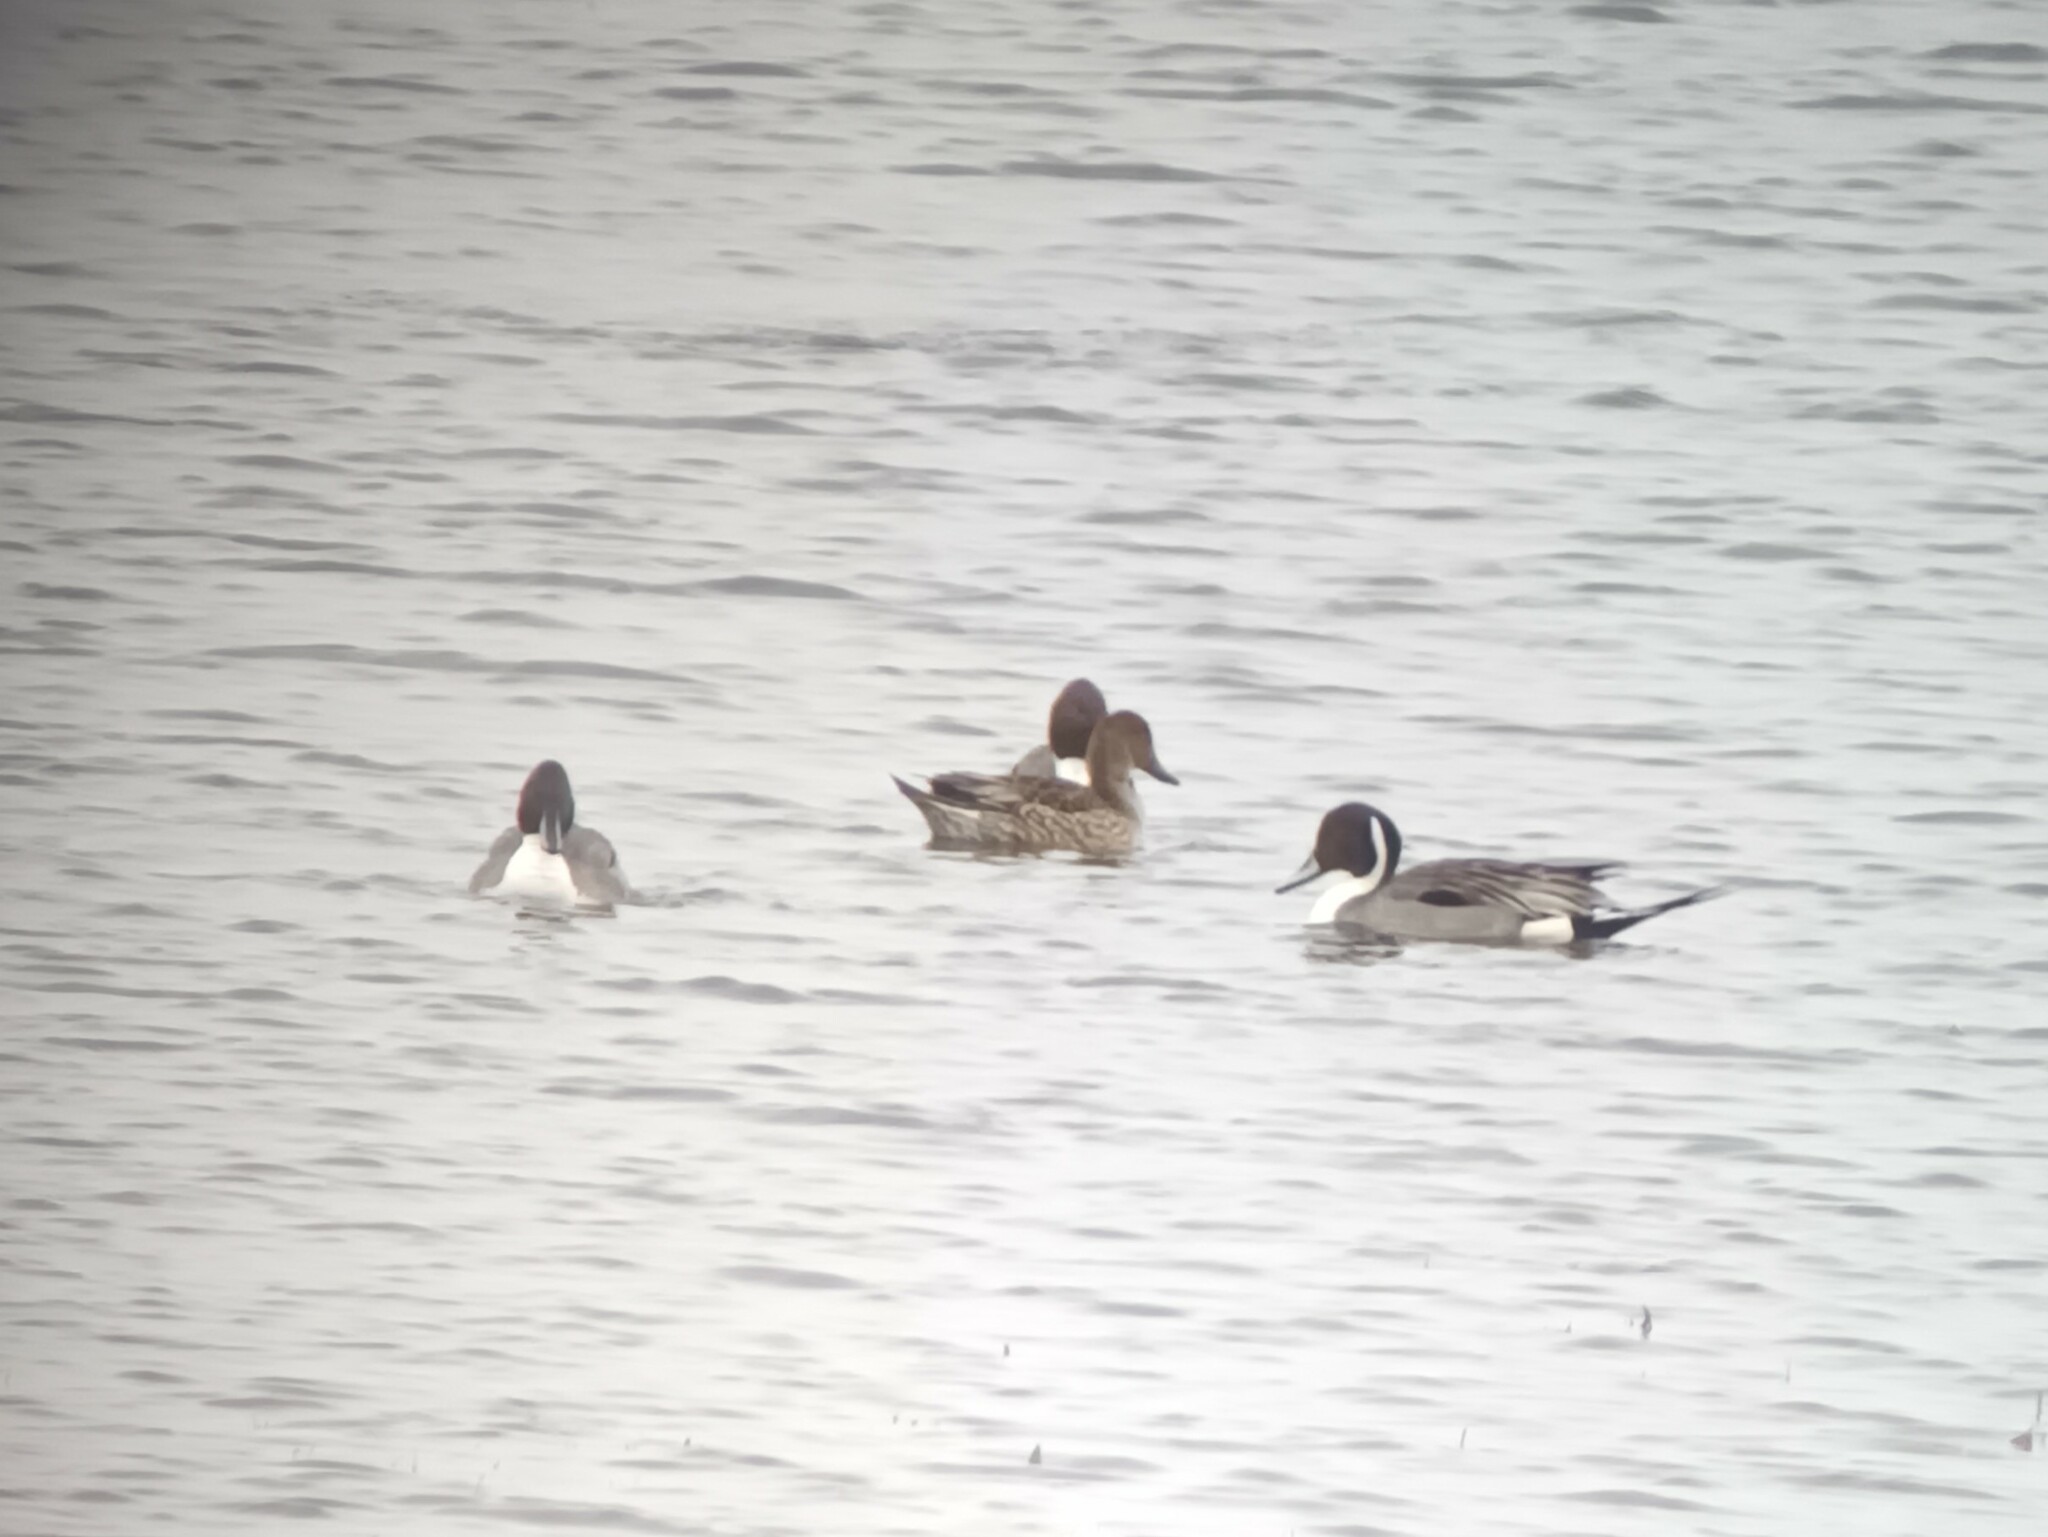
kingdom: Animalia
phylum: Chordata
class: Aves
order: Anseriformes
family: Anatidae
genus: Anas
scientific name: Anas acuta
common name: Northern pintail
